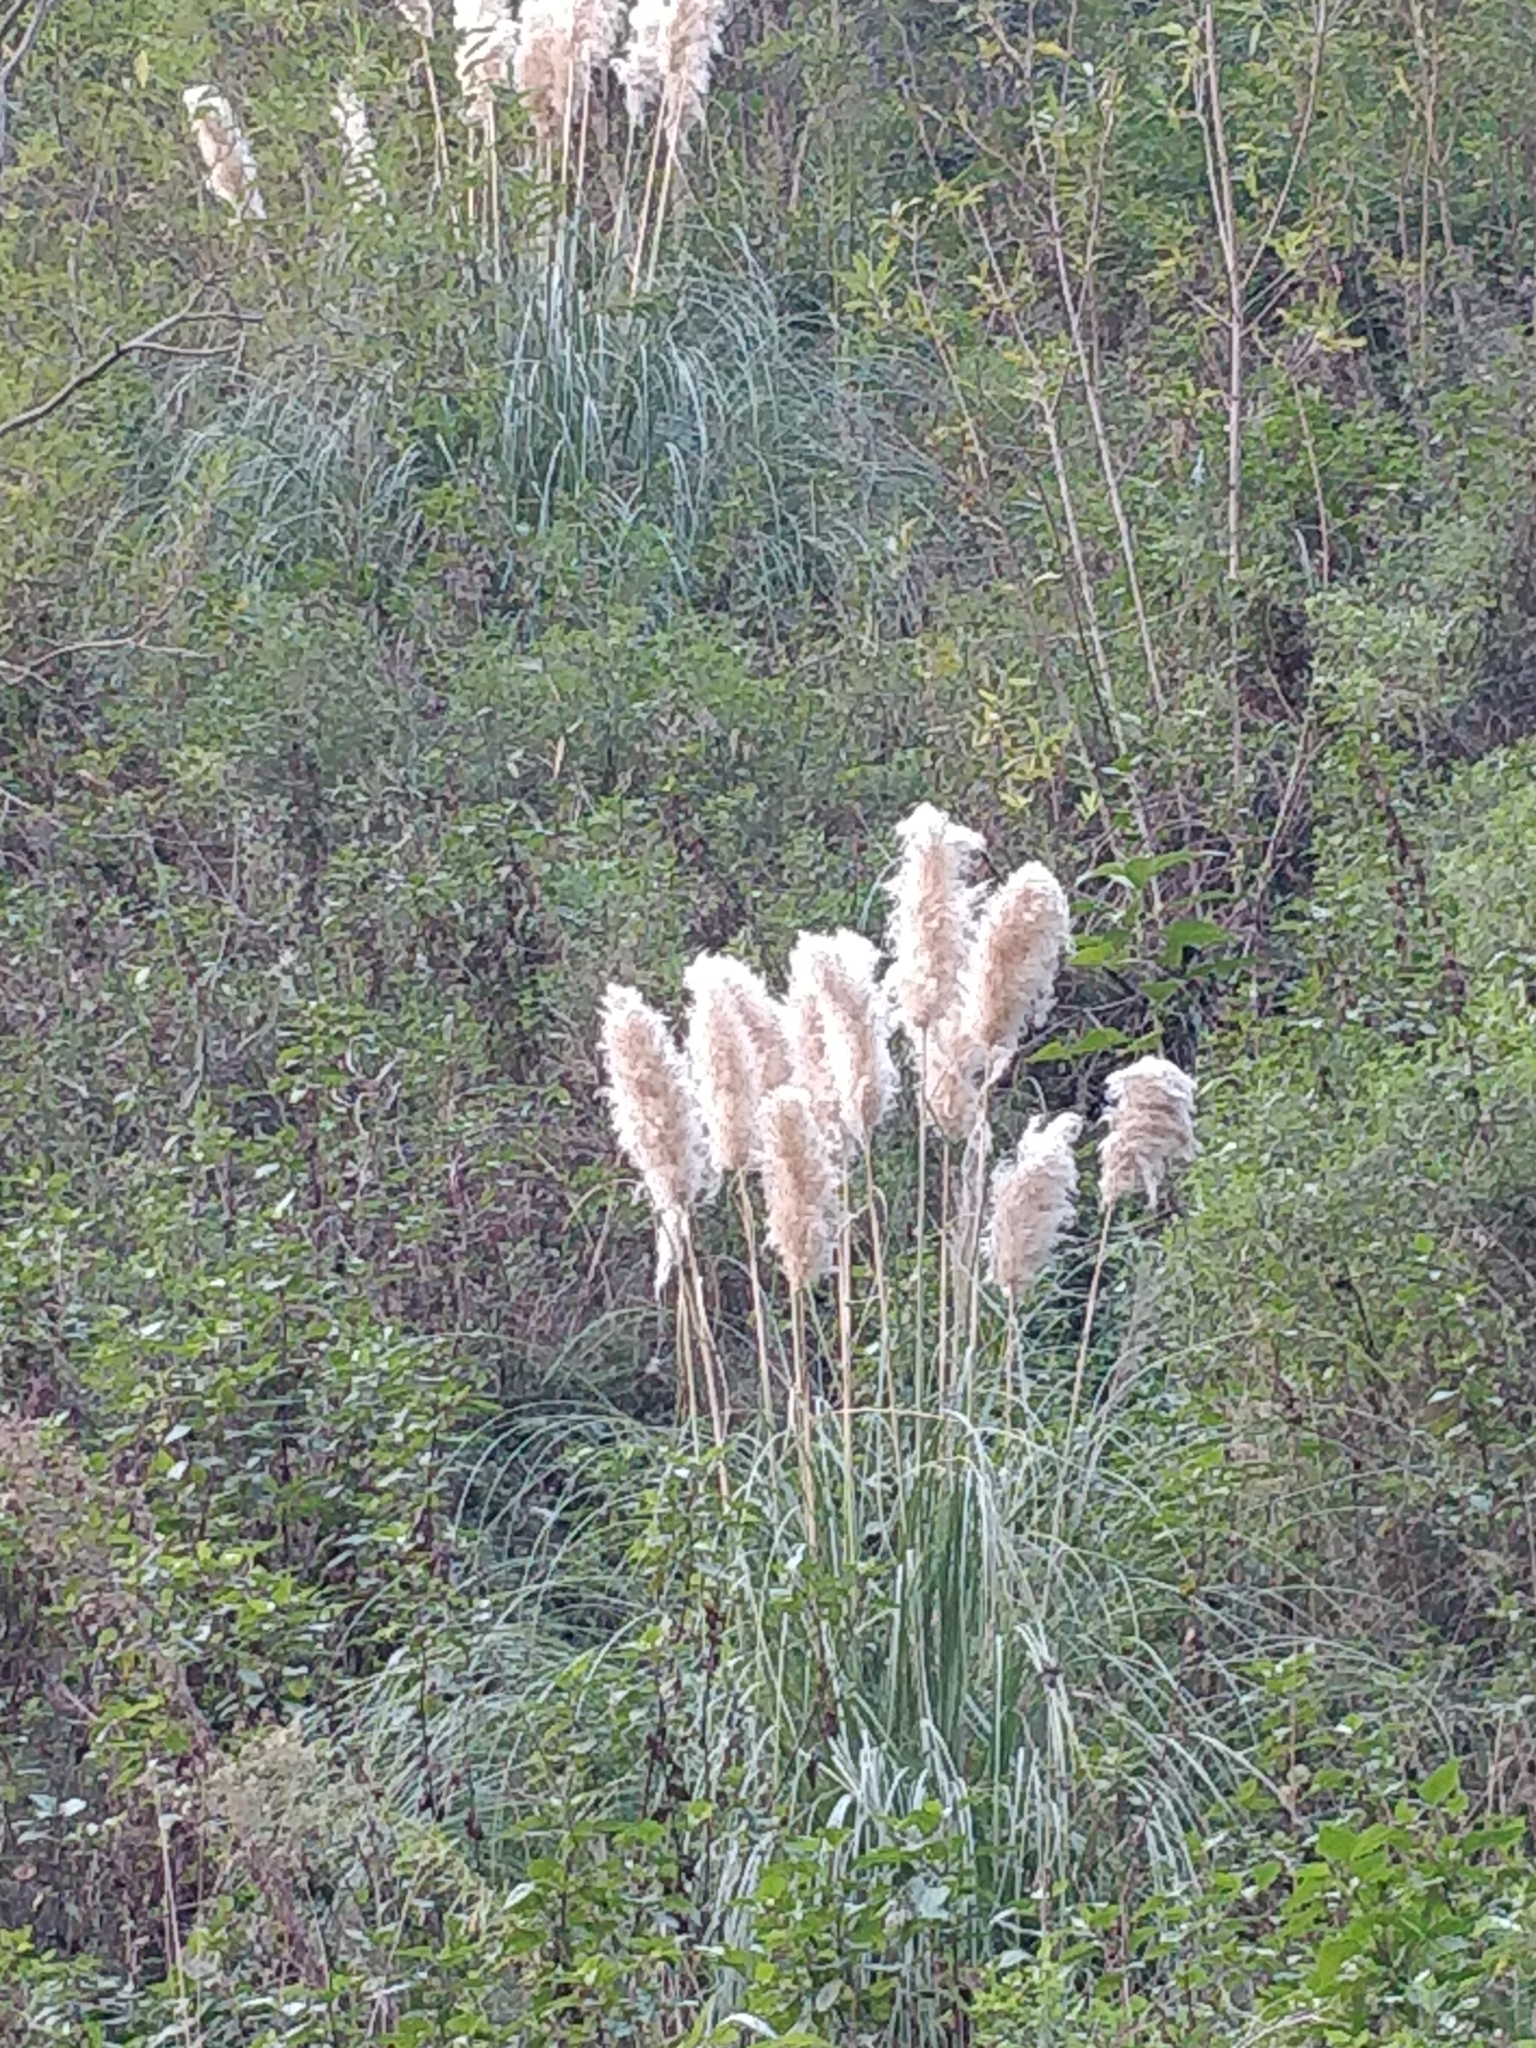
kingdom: Plantae
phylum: Tracheophyta
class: Liliopsida
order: Poales
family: Poaceae
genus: Cortaderia
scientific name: Cortaderia selloana
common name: Uruguayan pampas grass
